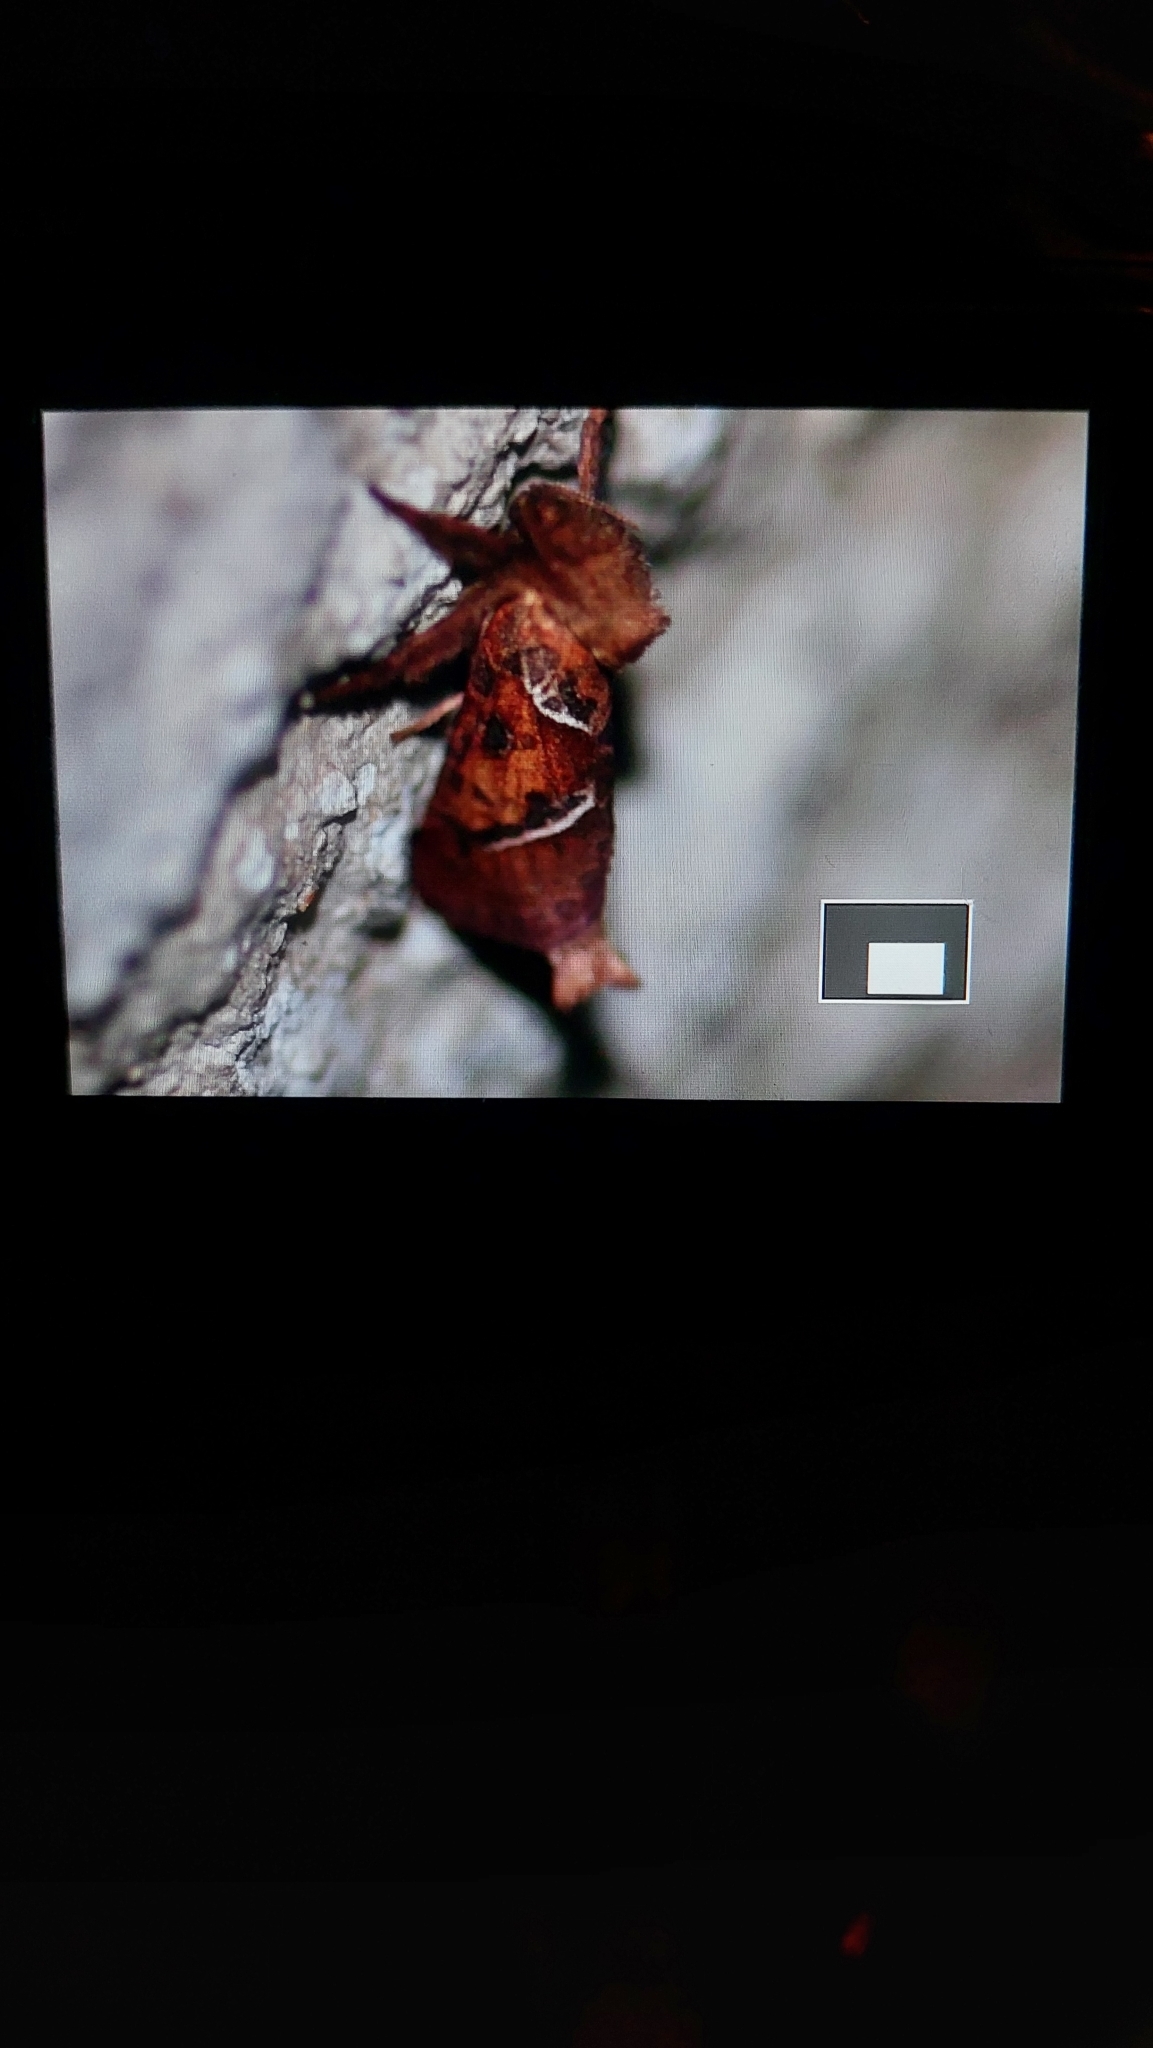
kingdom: Animalia
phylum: Arthropoda
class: Insecta
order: Lepidoptera
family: Hepialidae
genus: Triodia
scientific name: Triodia sylvina
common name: Orange swift
